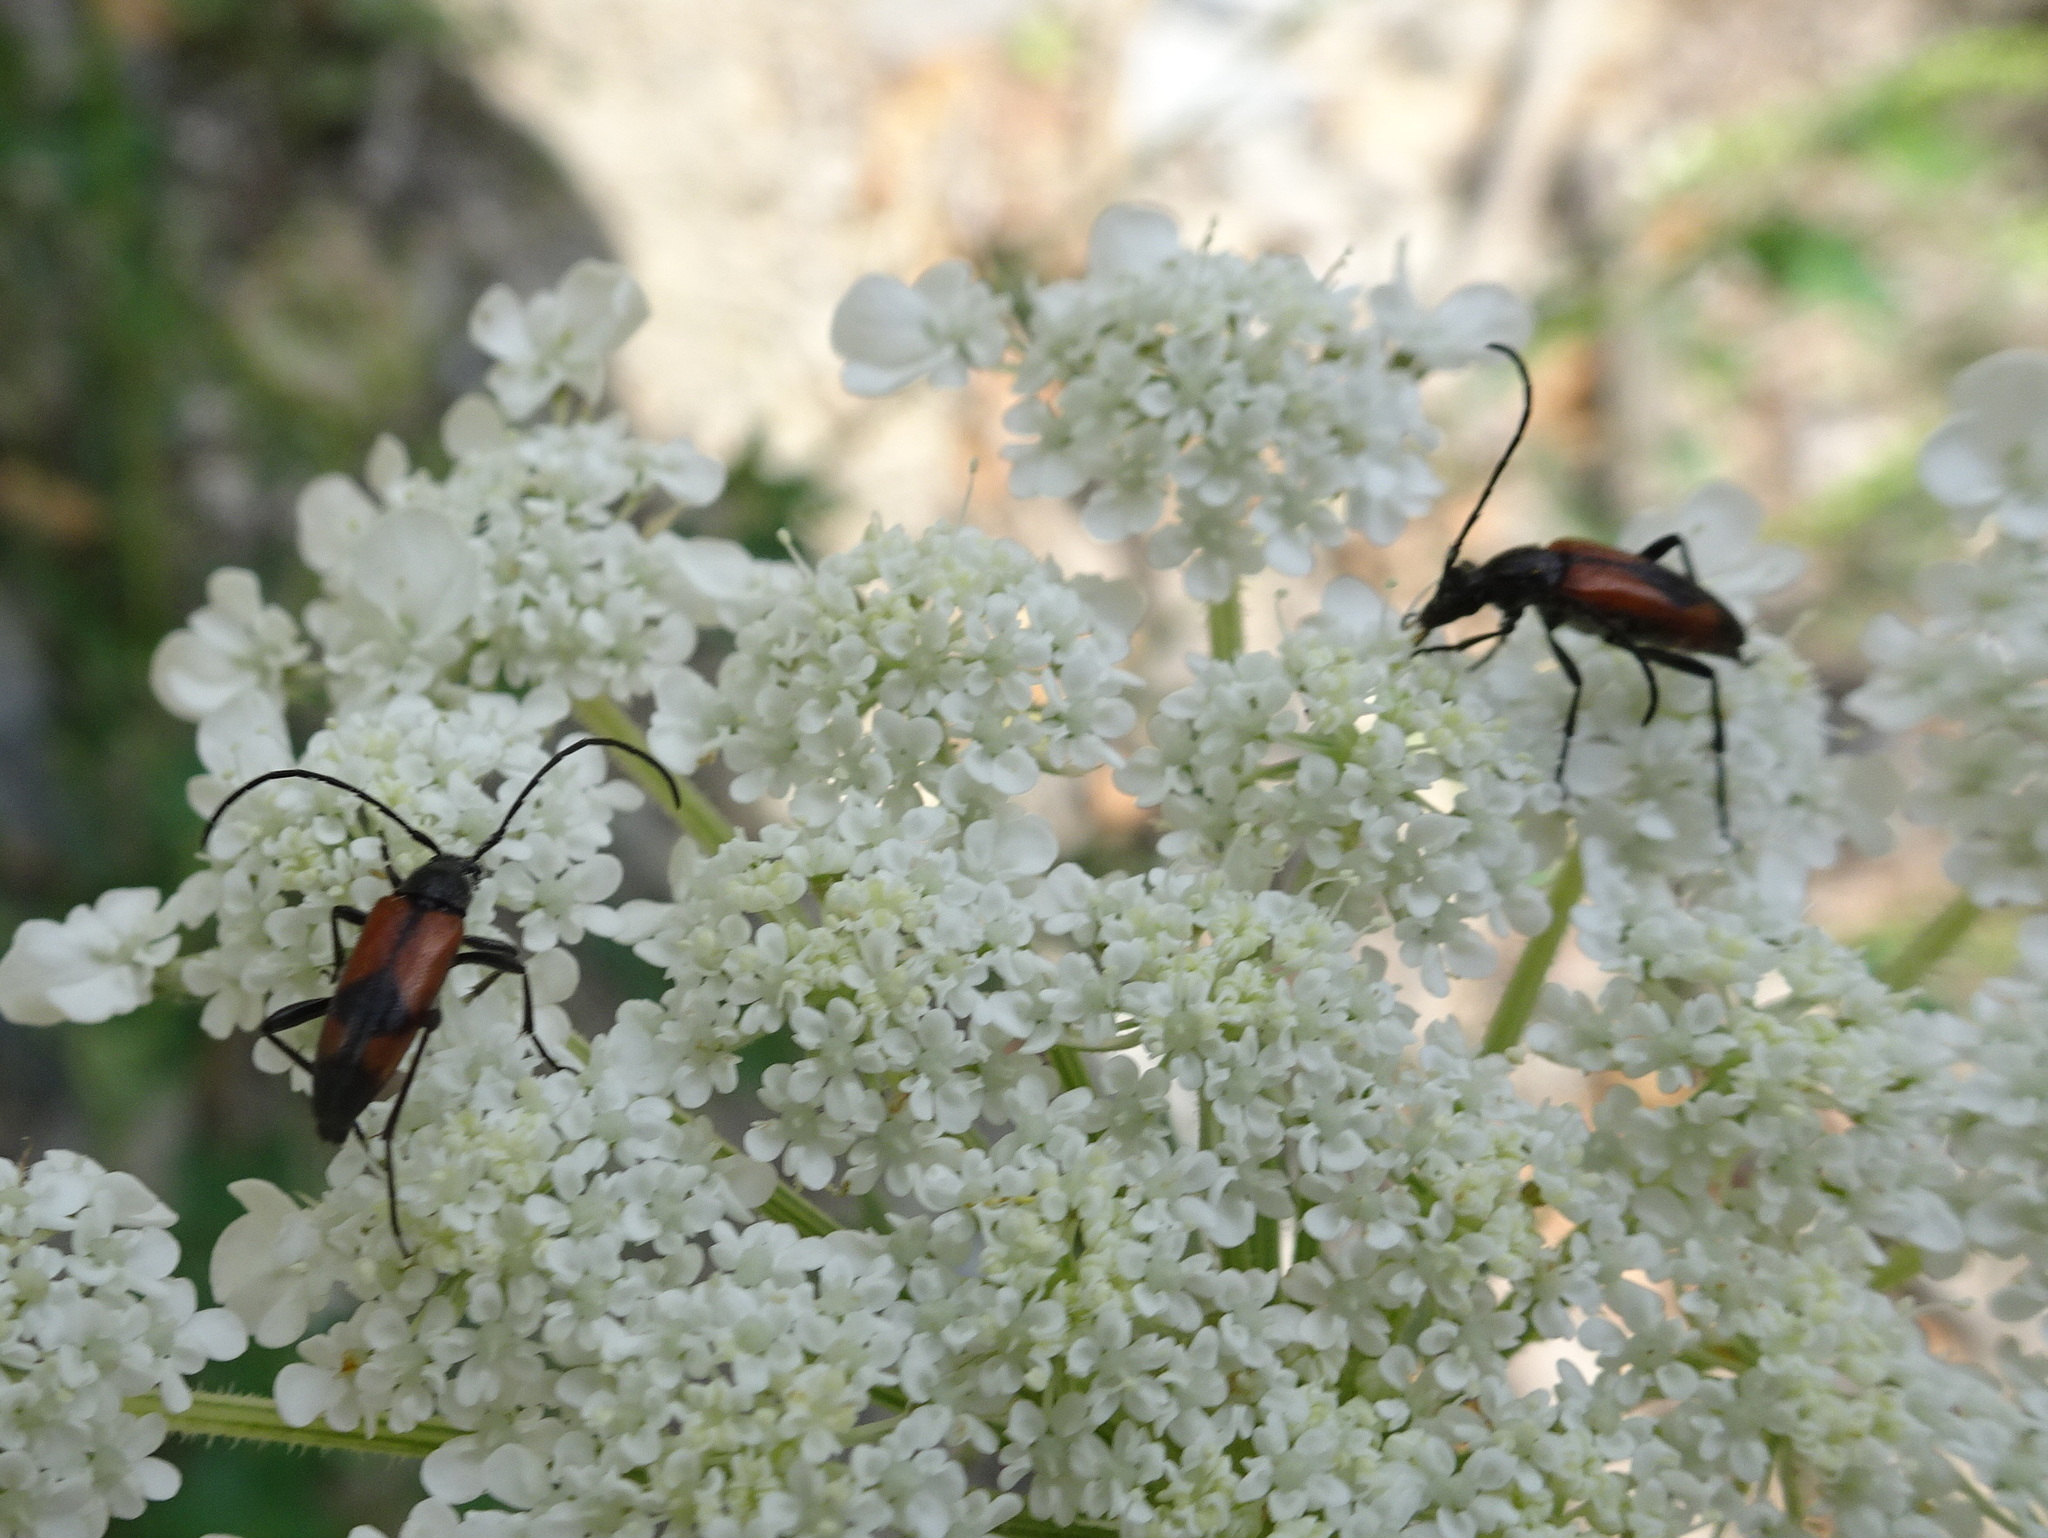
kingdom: Animalia
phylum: Arthropoda
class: Insecta
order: Coleoptera
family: Cerambycidae
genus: Stenurella
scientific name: Stenurella bifasciata
